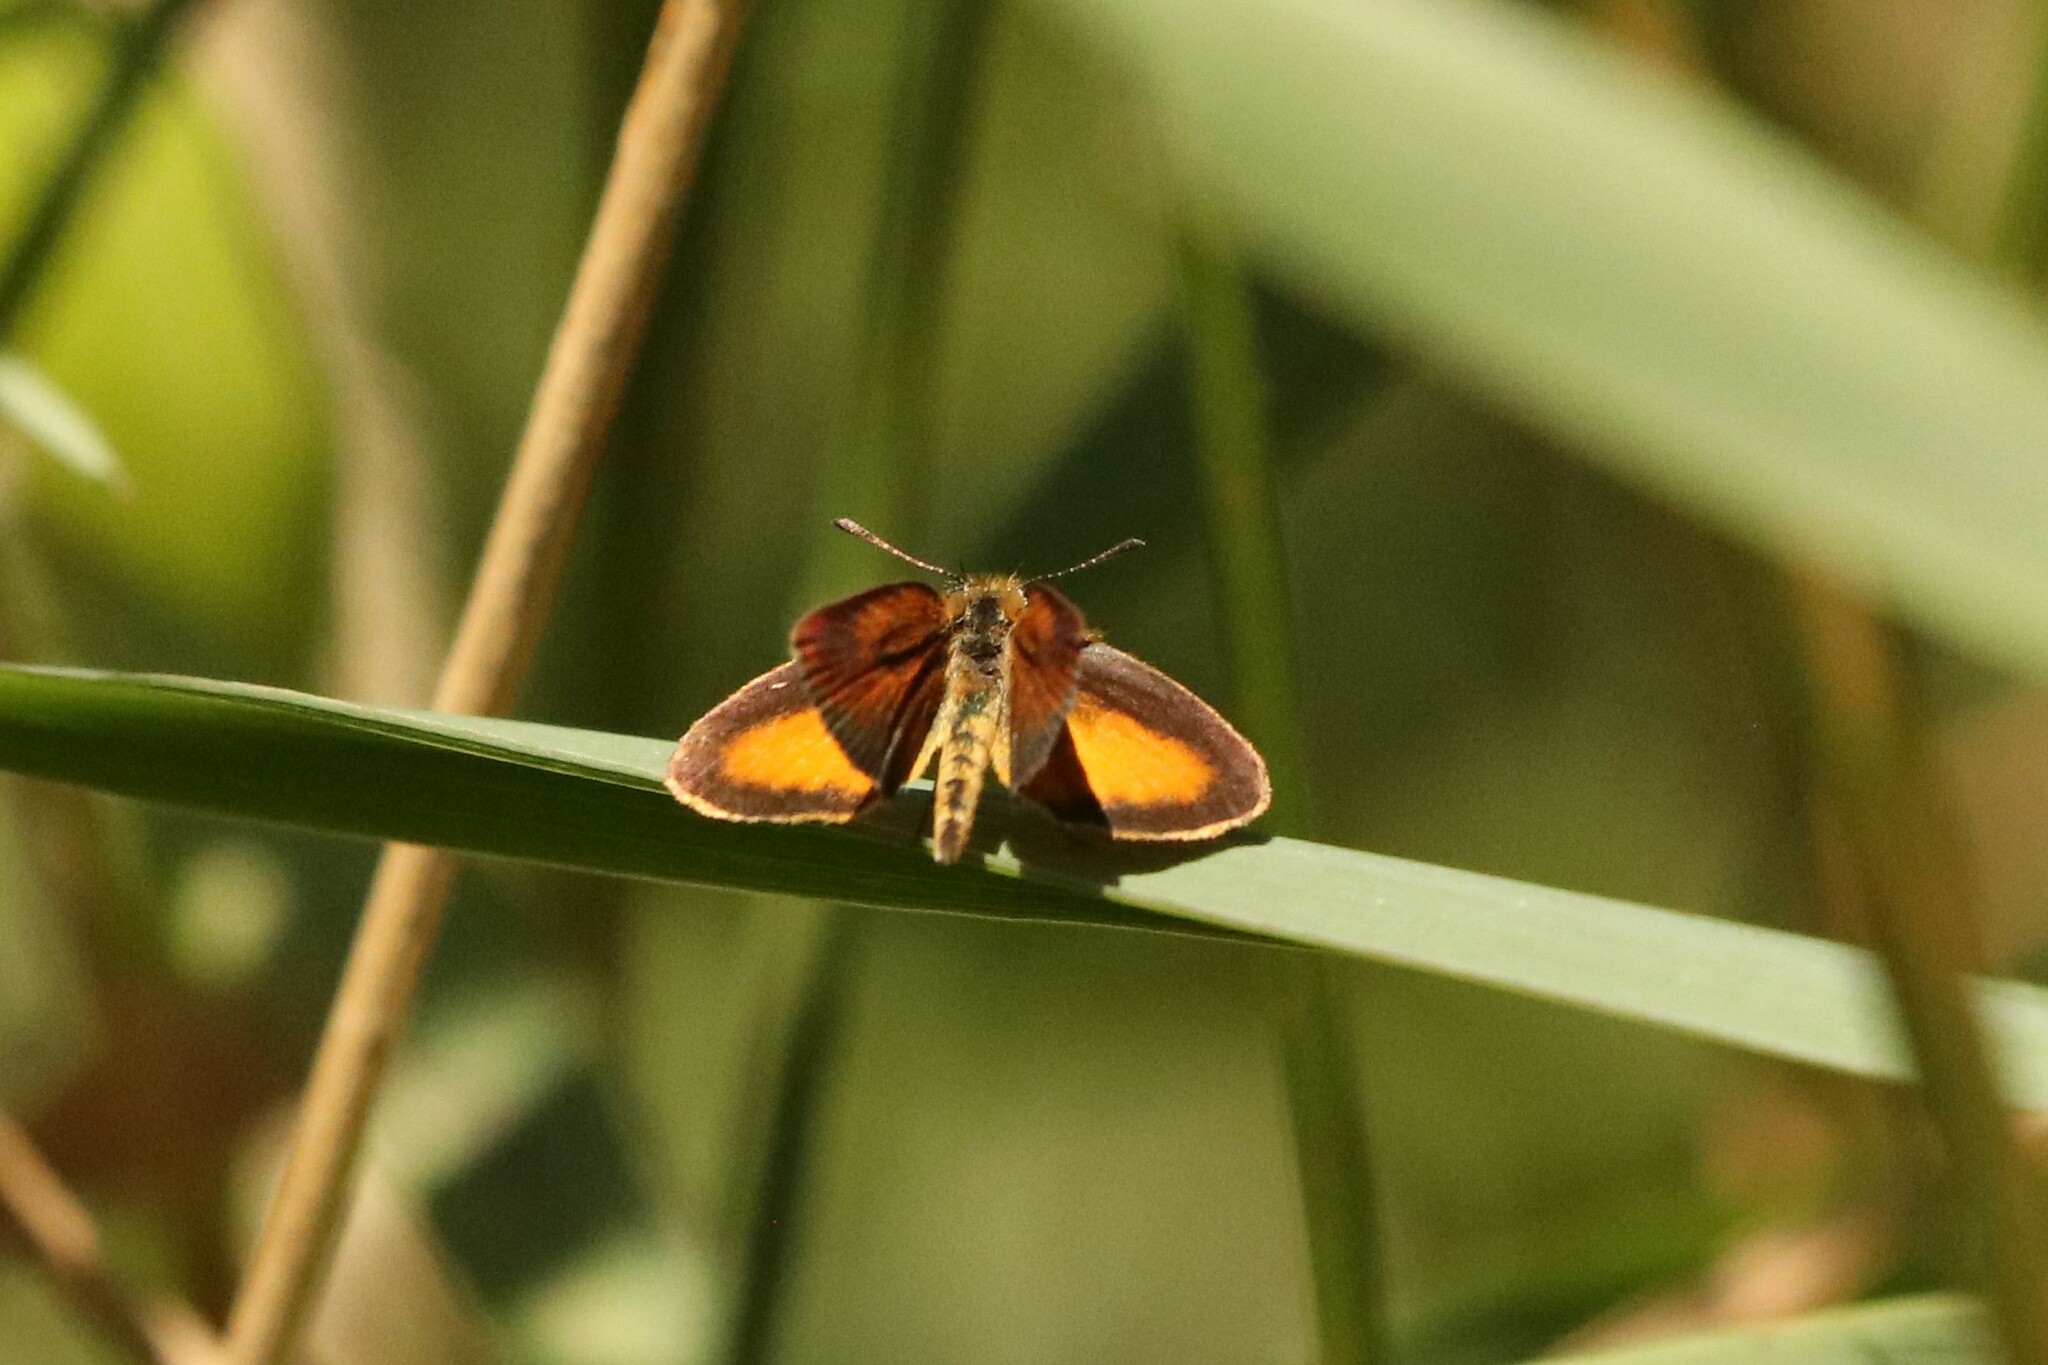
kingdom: Animalia
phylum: Arthropoda
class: Insecta
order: Lepidoptera
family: Hesperiidae
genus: Ancyloxypha
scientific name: Ancyloxypha numitor
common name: Least skipper
